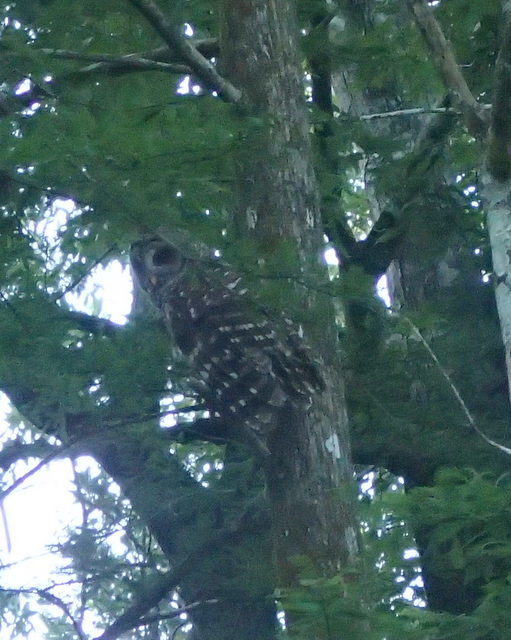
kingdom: Animalia
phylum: Chordata
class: Aves
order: Strigiformes
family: Strigidae
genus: Strix
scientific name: Strix varia
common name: Barred owl
